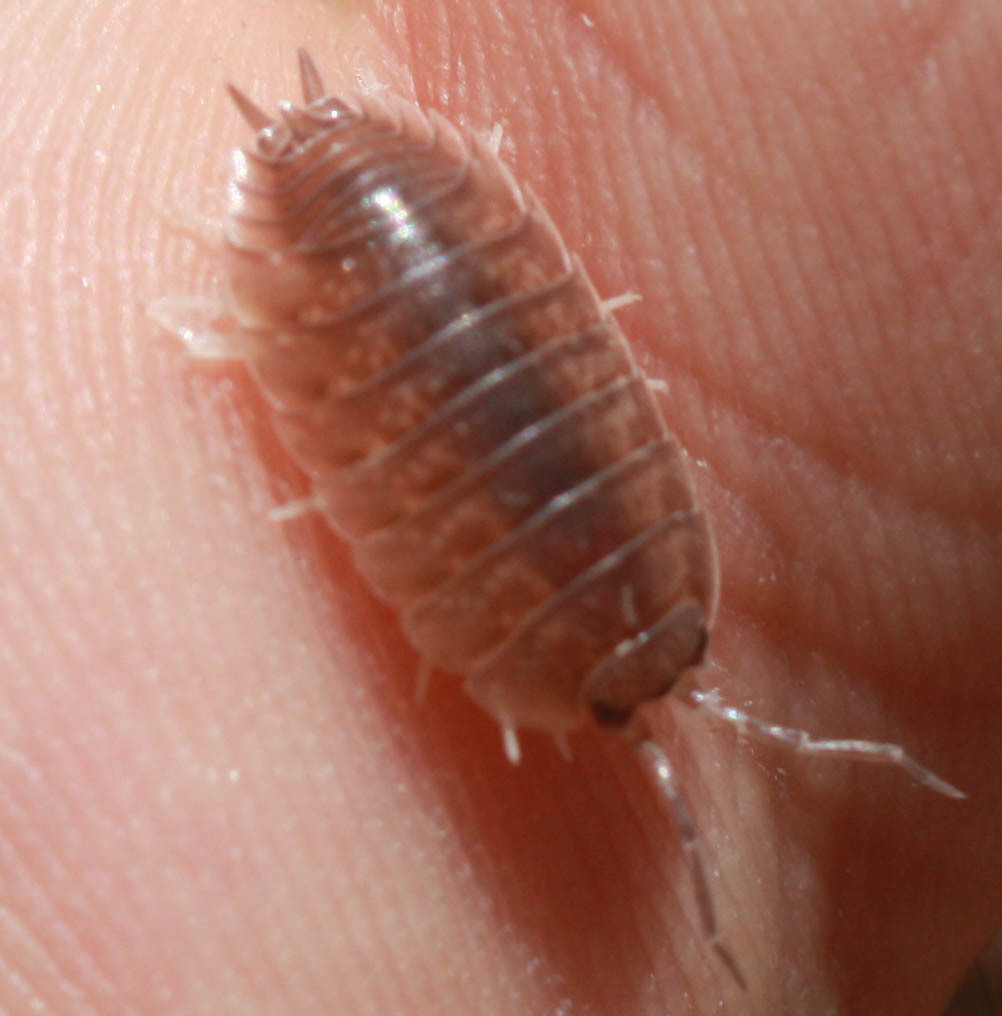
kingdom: Animalia
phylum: Arthropoda
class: Malacostraca
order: Isopoda
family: Porcellionidae
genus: Porcellio
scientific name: Porcellio laevis
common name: Swift woodlouse
